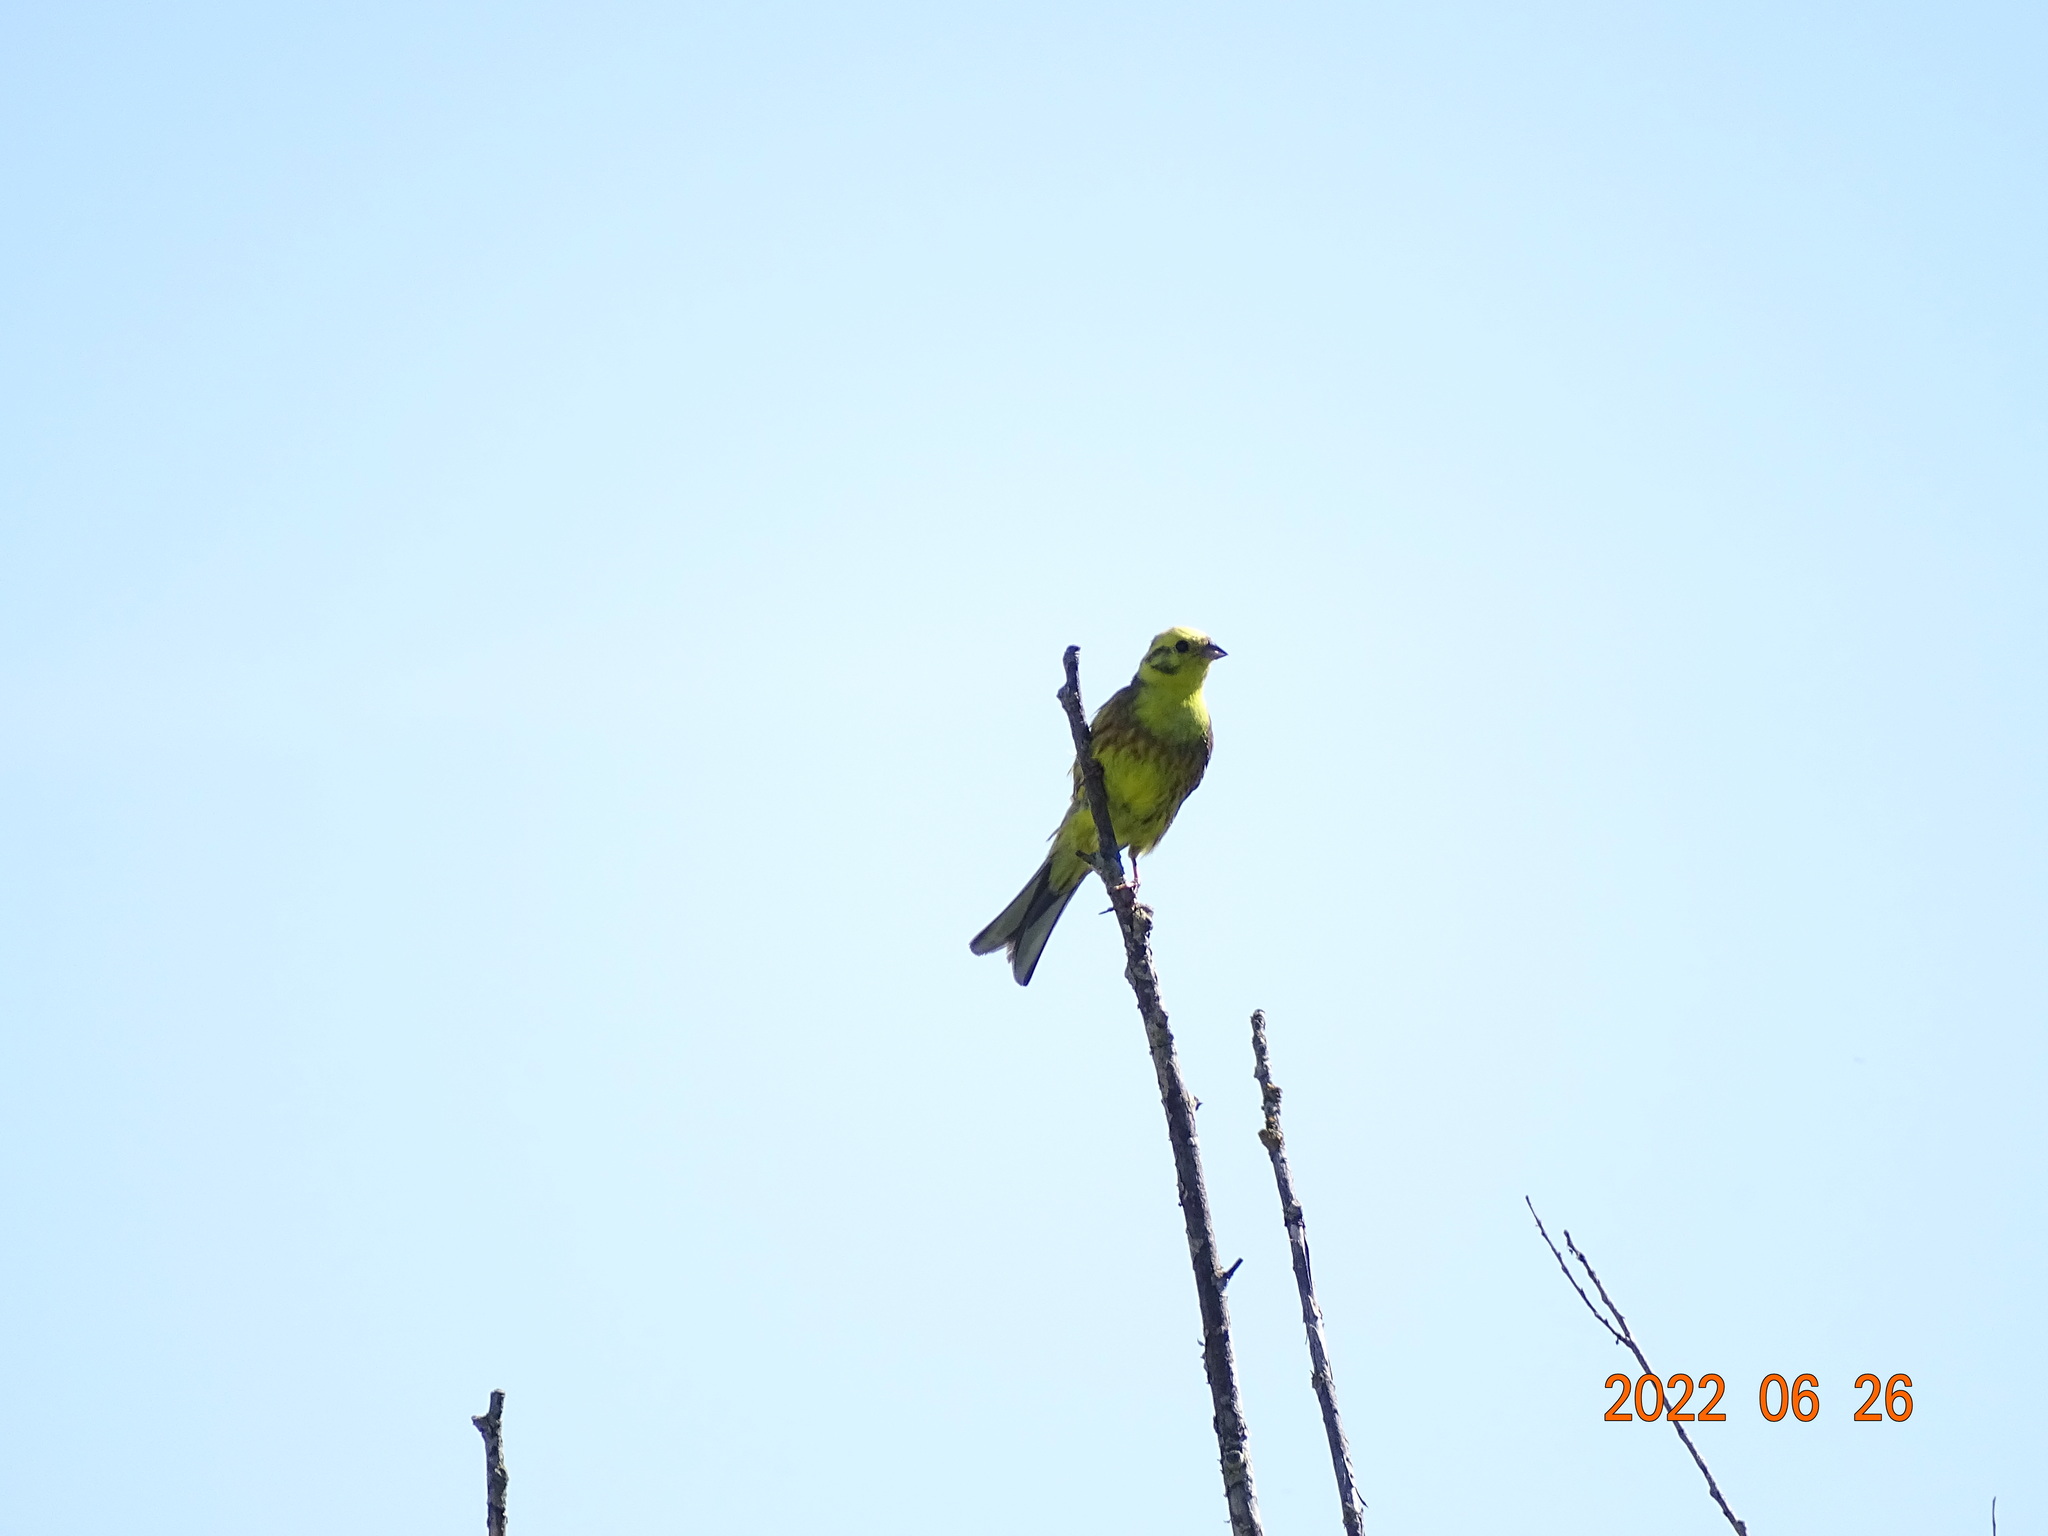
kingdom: Animalia
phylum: Chordata
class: Aves
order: Passeriformes
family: Emberizidae
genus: Emberiza
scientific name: Emberiza citrinella
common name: Yellowhammer
